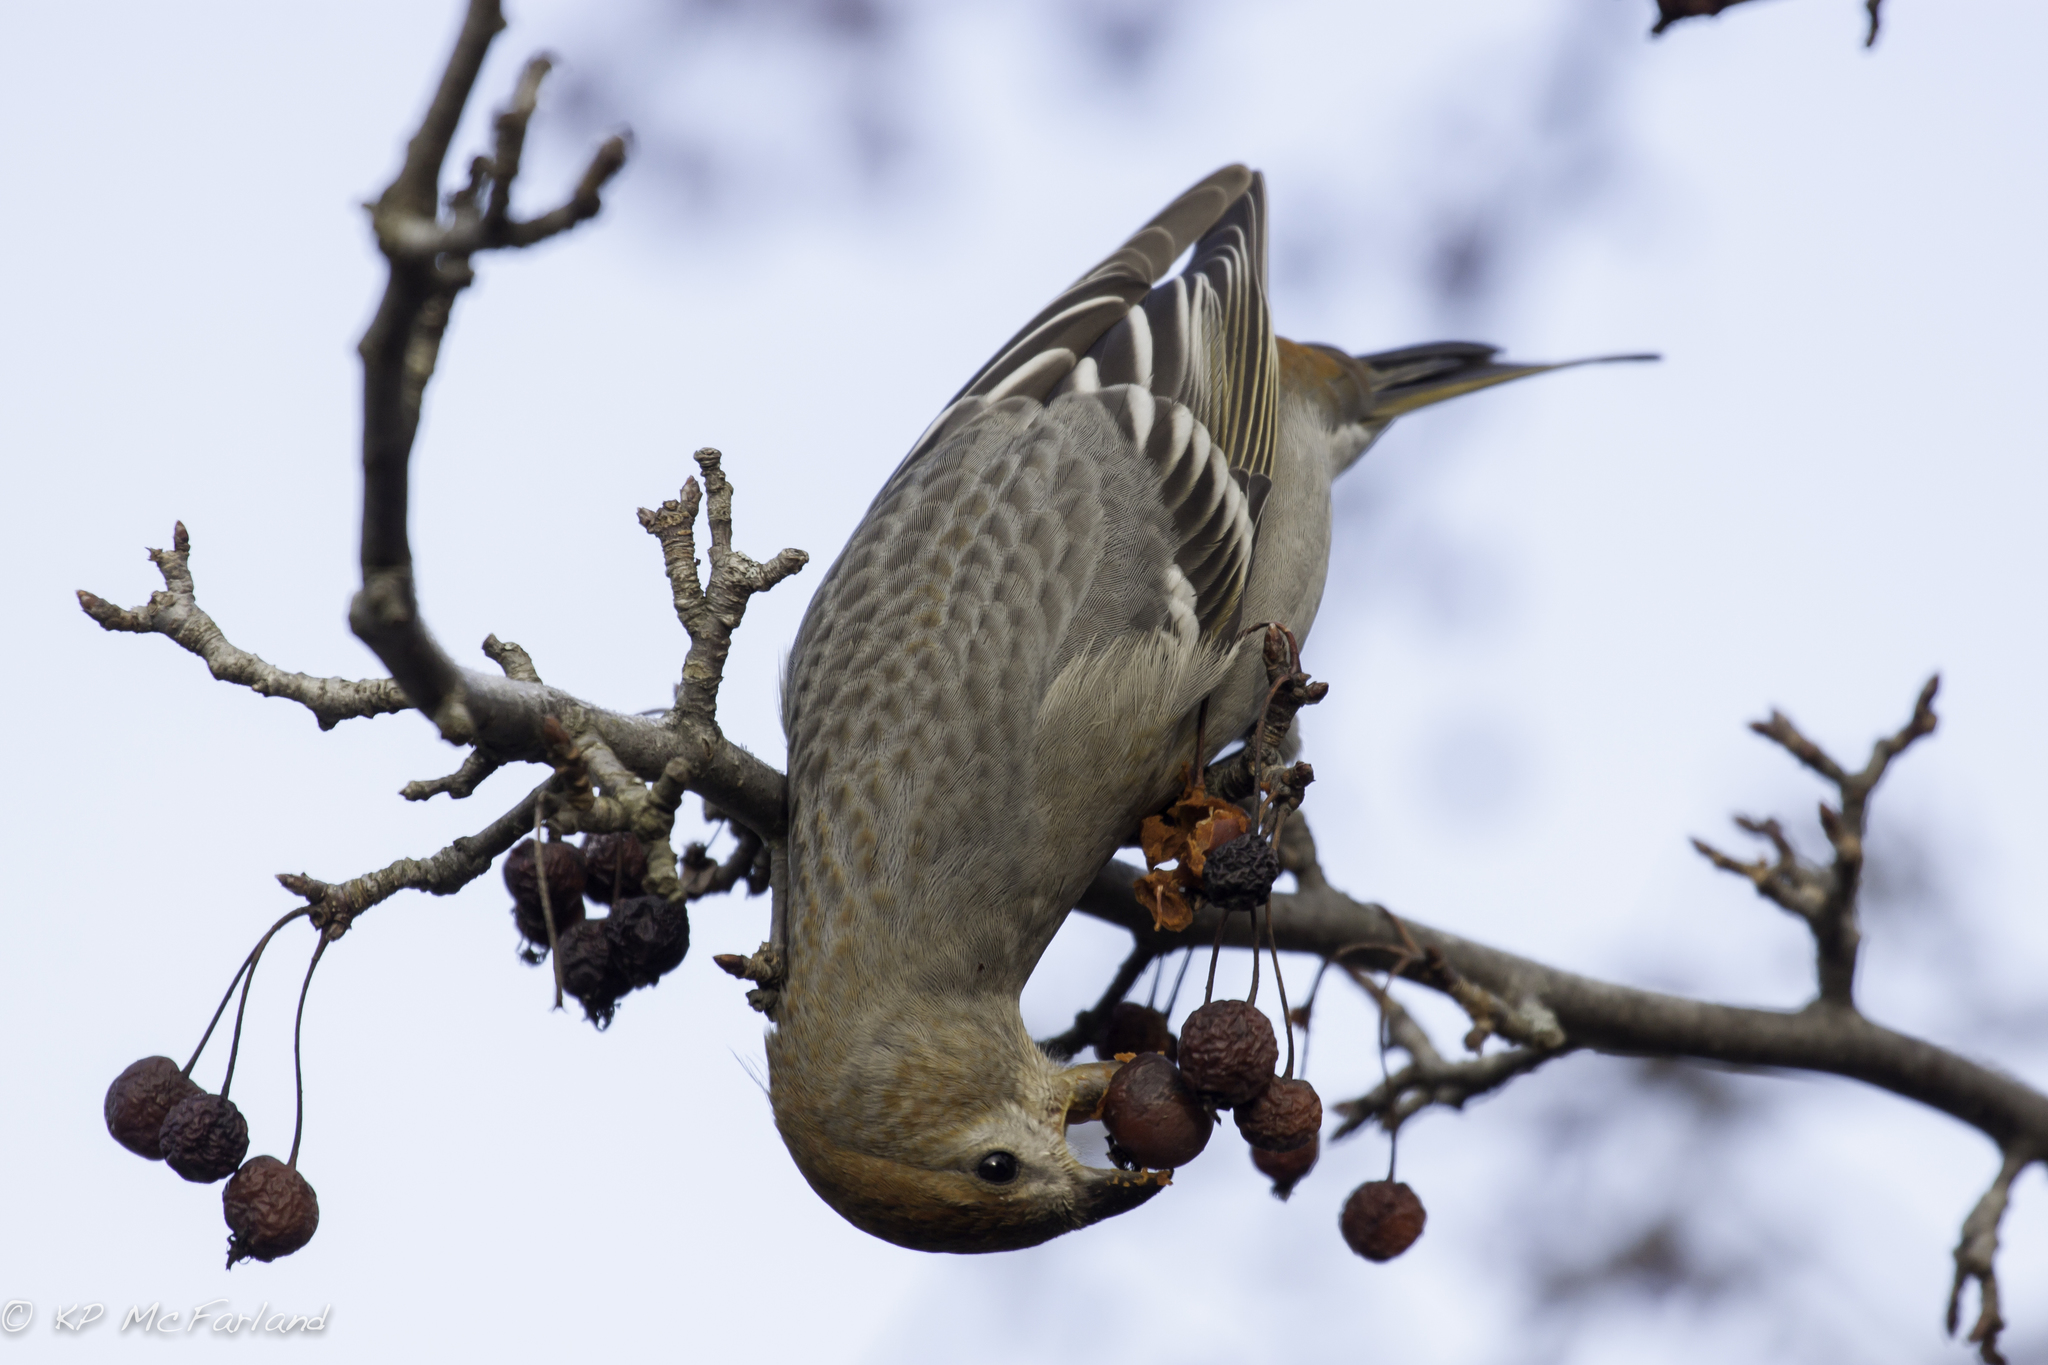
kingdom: Animalia
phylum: Chordata
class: Aves
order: Passeriformes
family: Fringillidae
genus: Pinicola
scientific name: Pinicola enucleator
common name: Pine grosbeak
